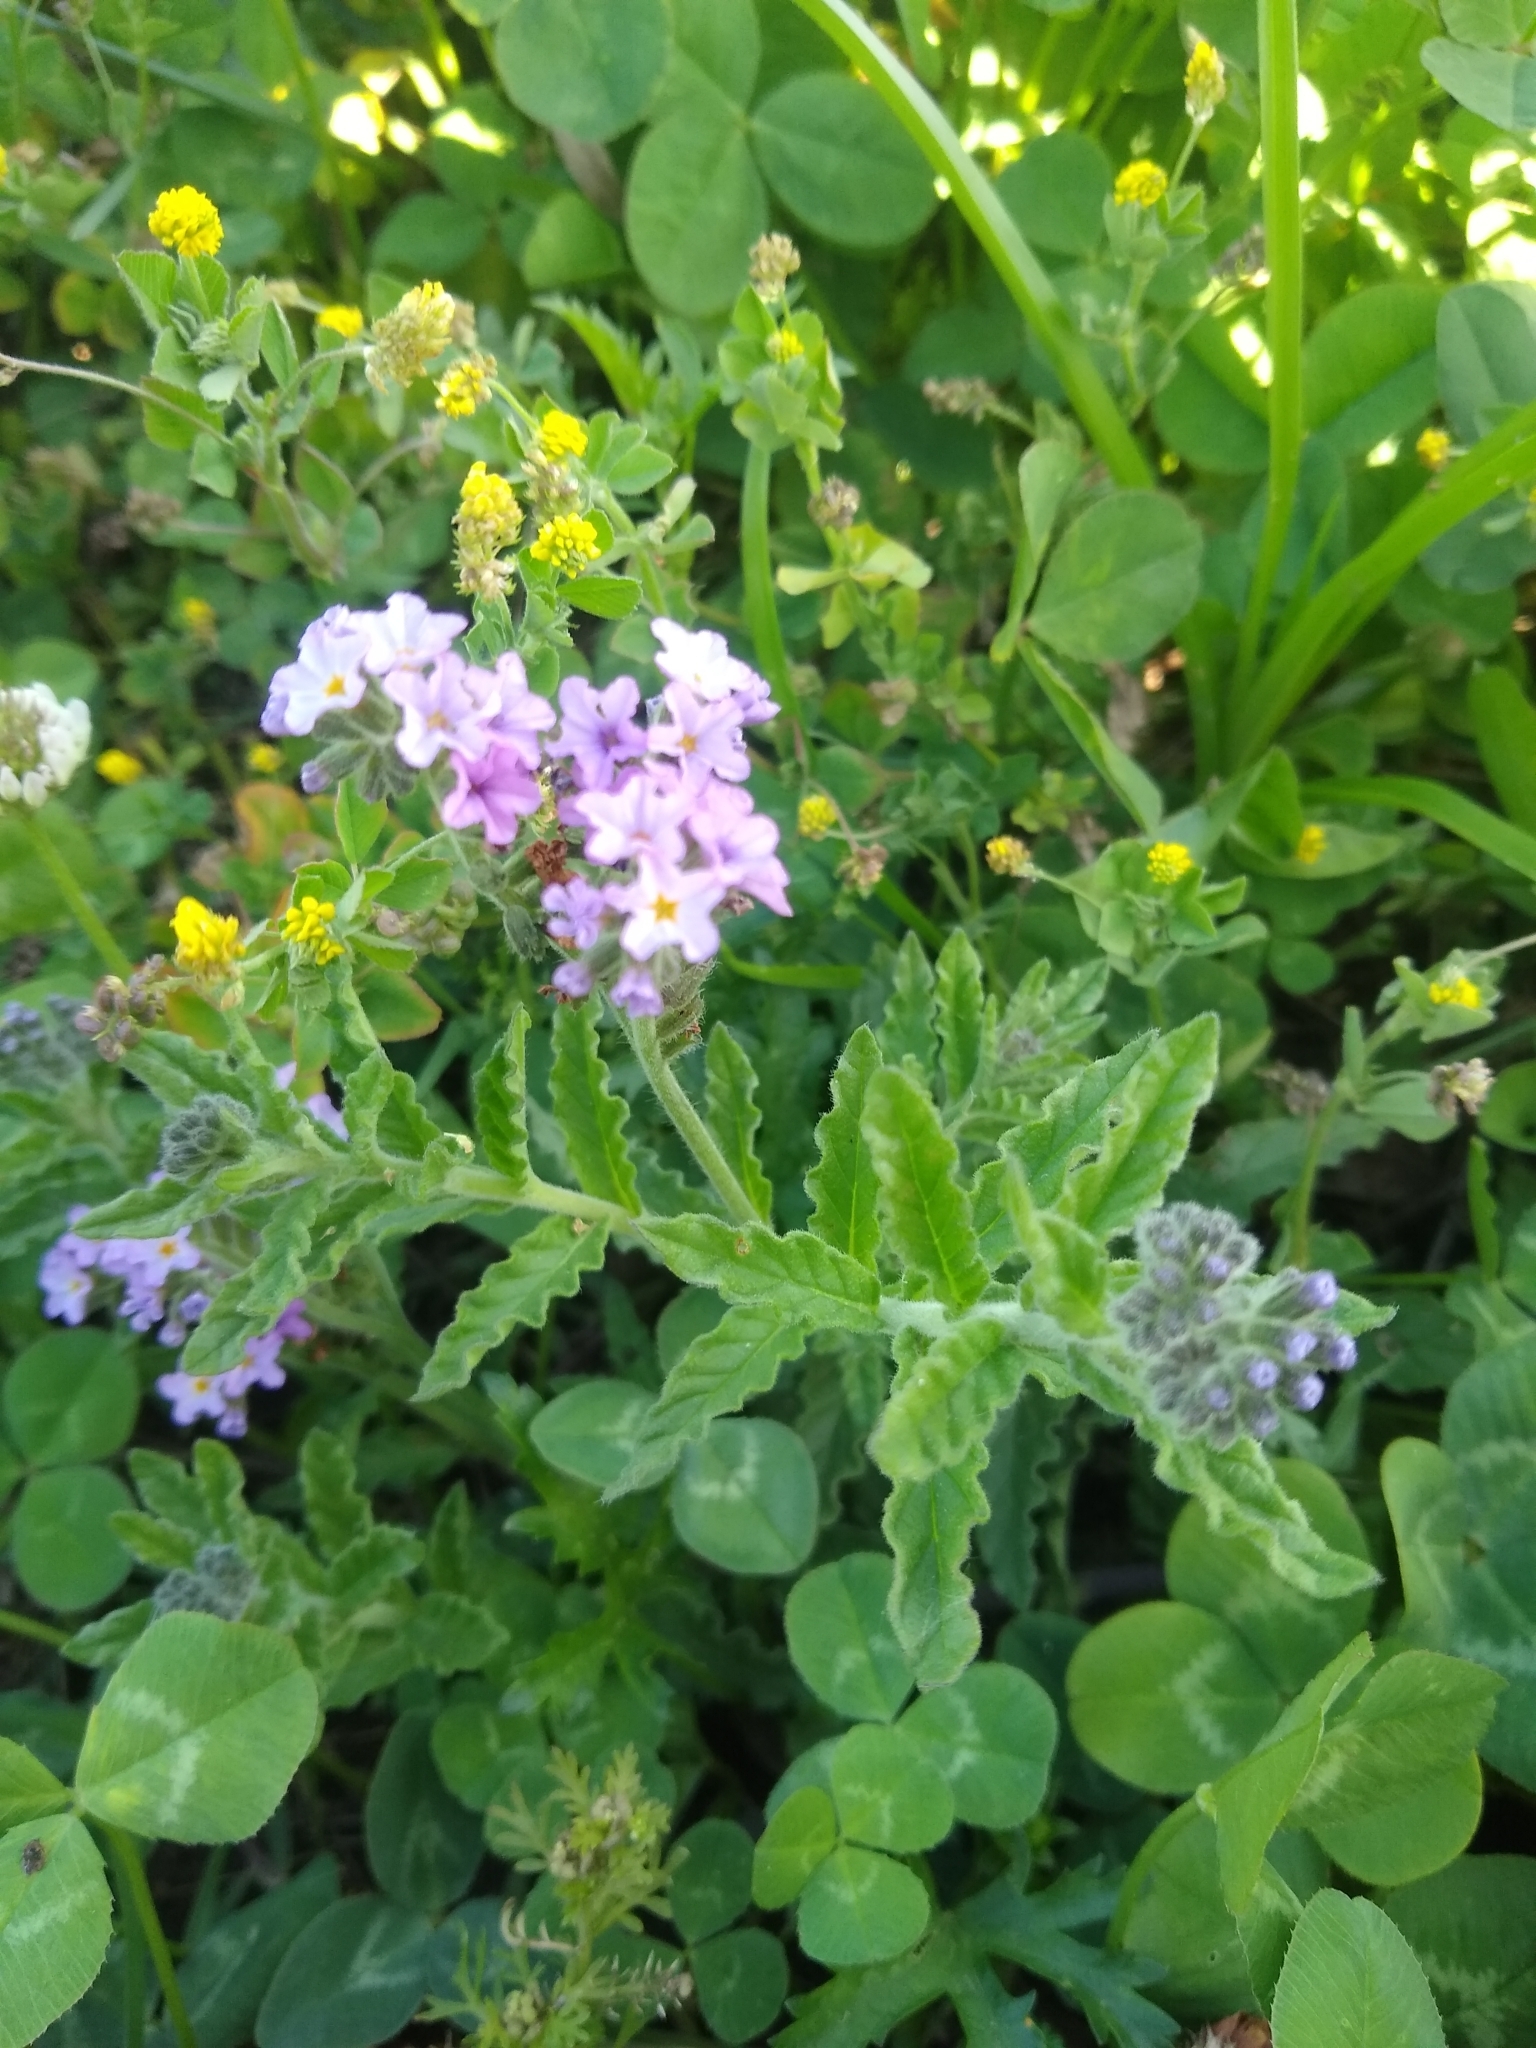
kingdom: Plantae
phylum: Tracheophyta
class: Magnoliopsida
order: Boraginales
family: Heliotropiaceae
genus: Heliotropium
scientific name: Heliotropium amplexicaule
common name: Clasping heliotrope
